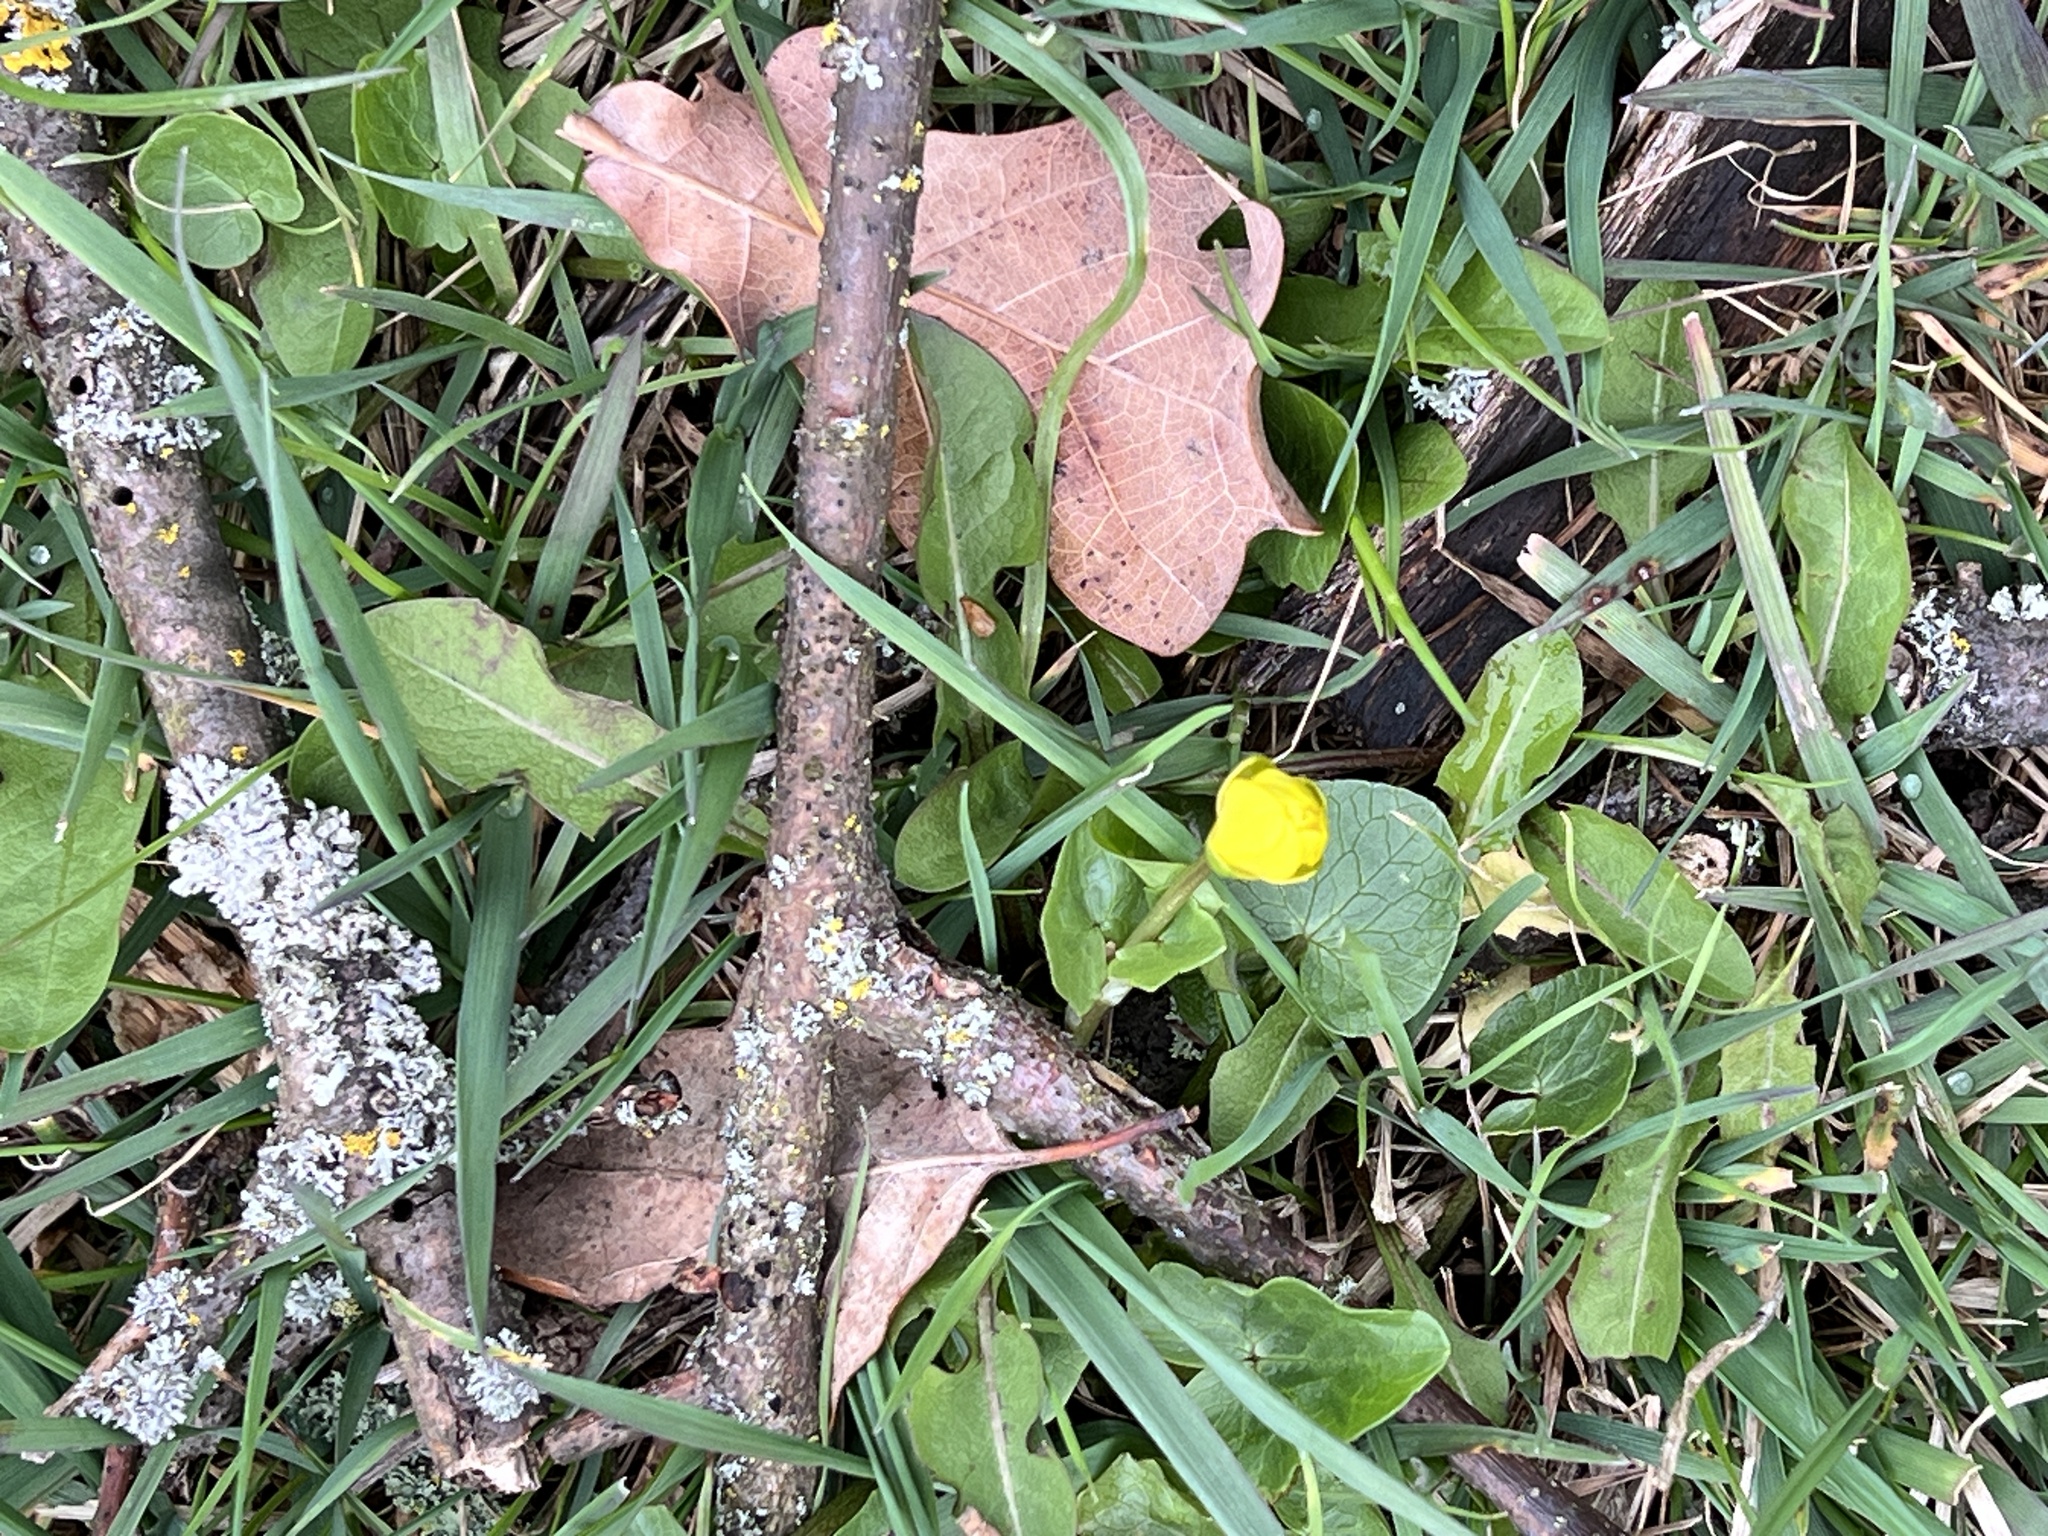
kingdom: Plantae
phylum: Tracheophyta
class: Magnoliopsida
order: Ranunculales
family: Ranunculaceae
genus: Ficaria
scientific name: Ficaria verna
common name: Lesser celandine
